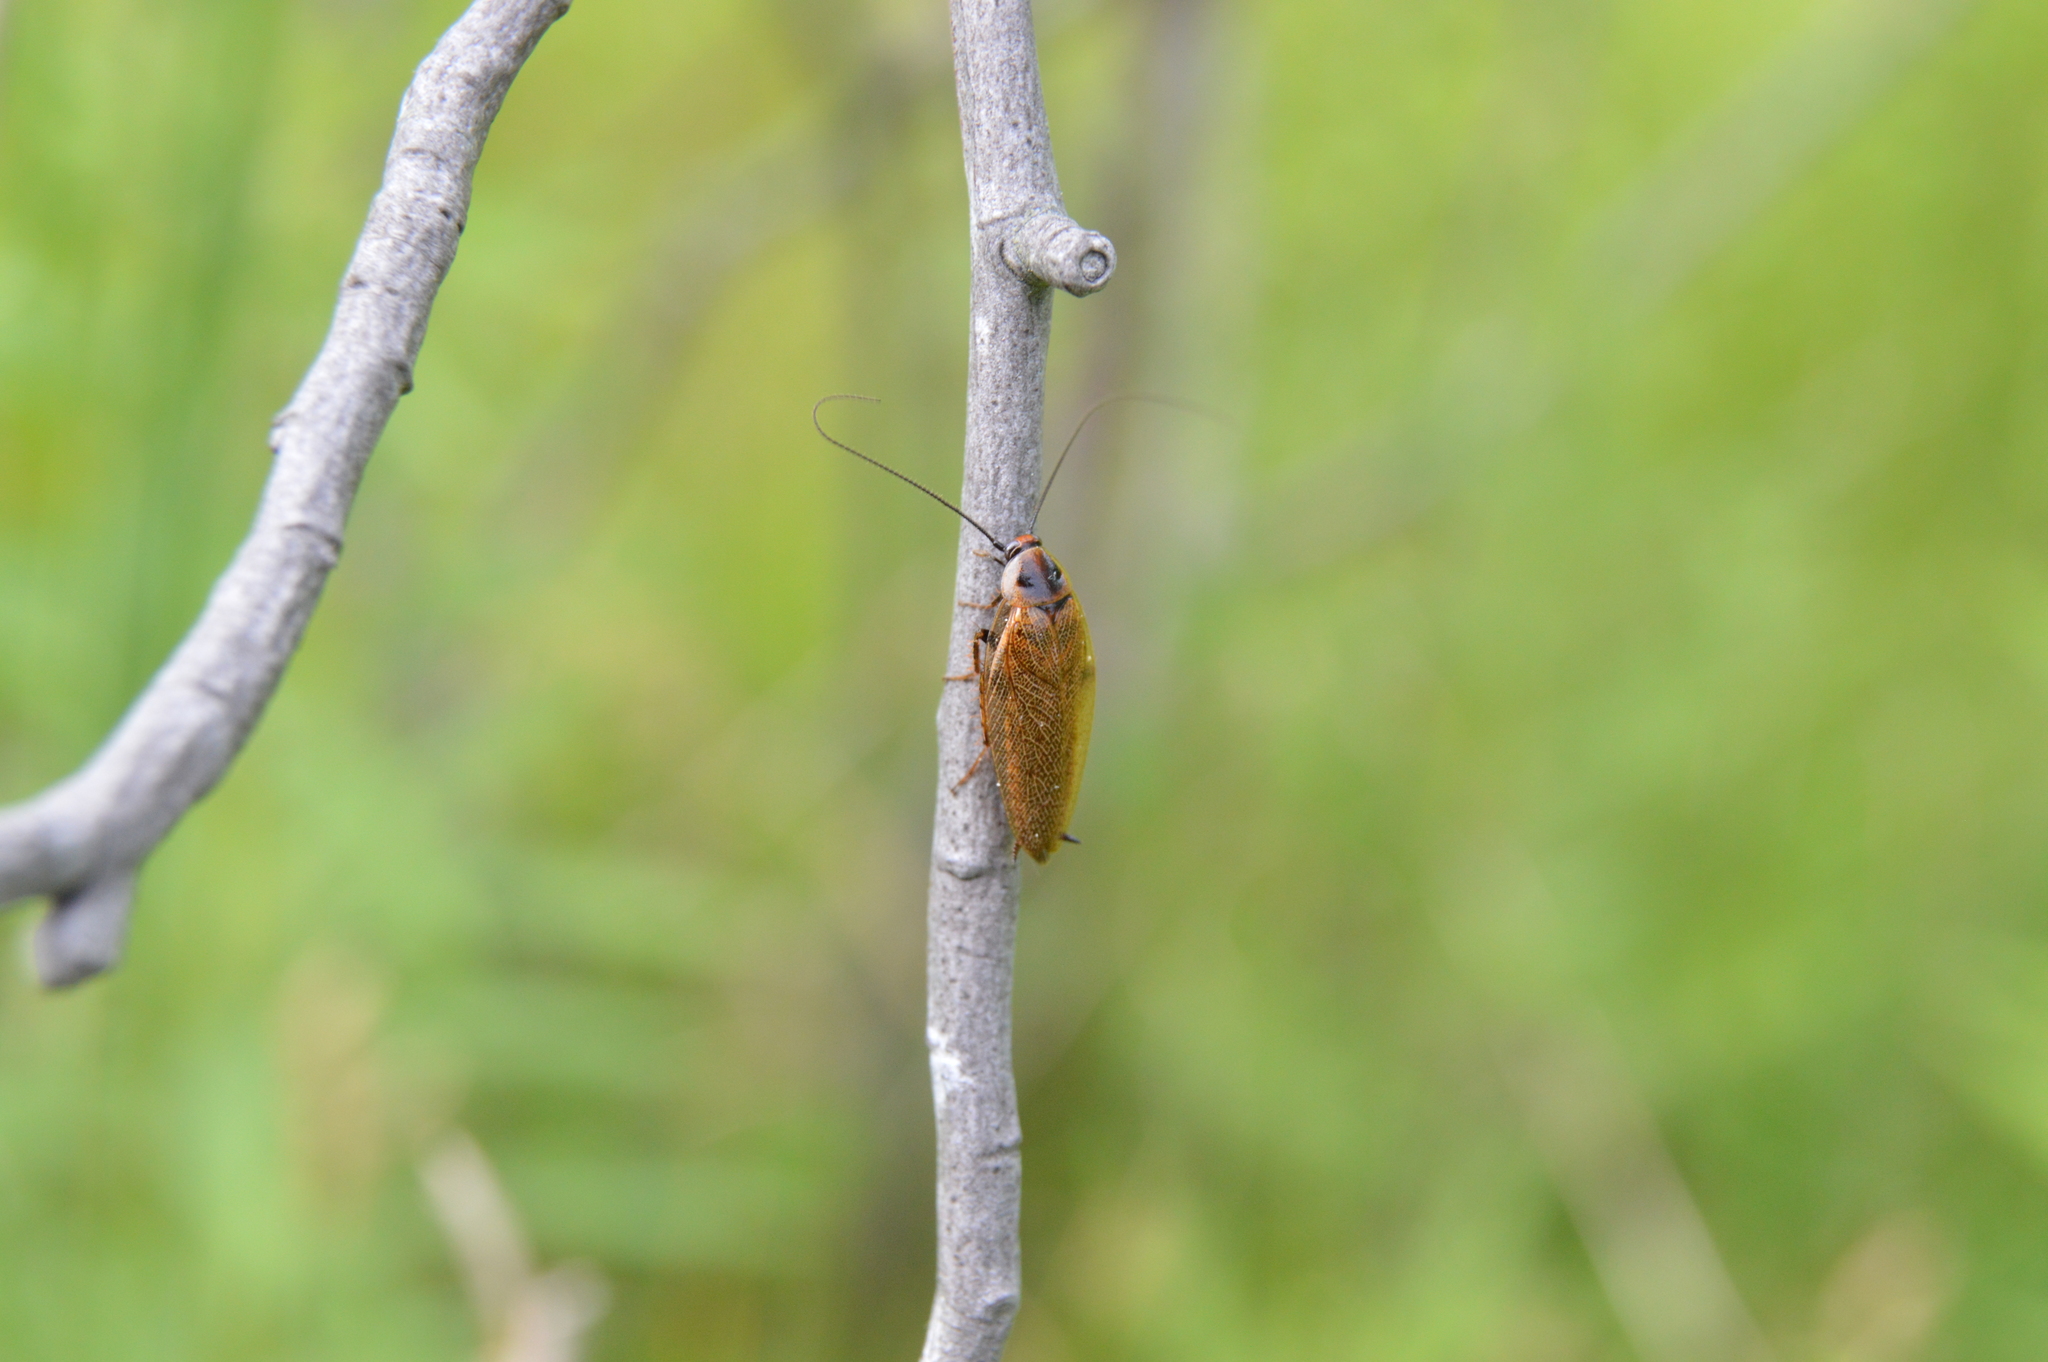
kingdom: Animalia
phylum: Arthropoda
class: Insecta
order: Blattodea
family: Ectobiidae
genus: Ectobius
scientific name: Ectobius lapponicus
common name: Dusky cockroach
